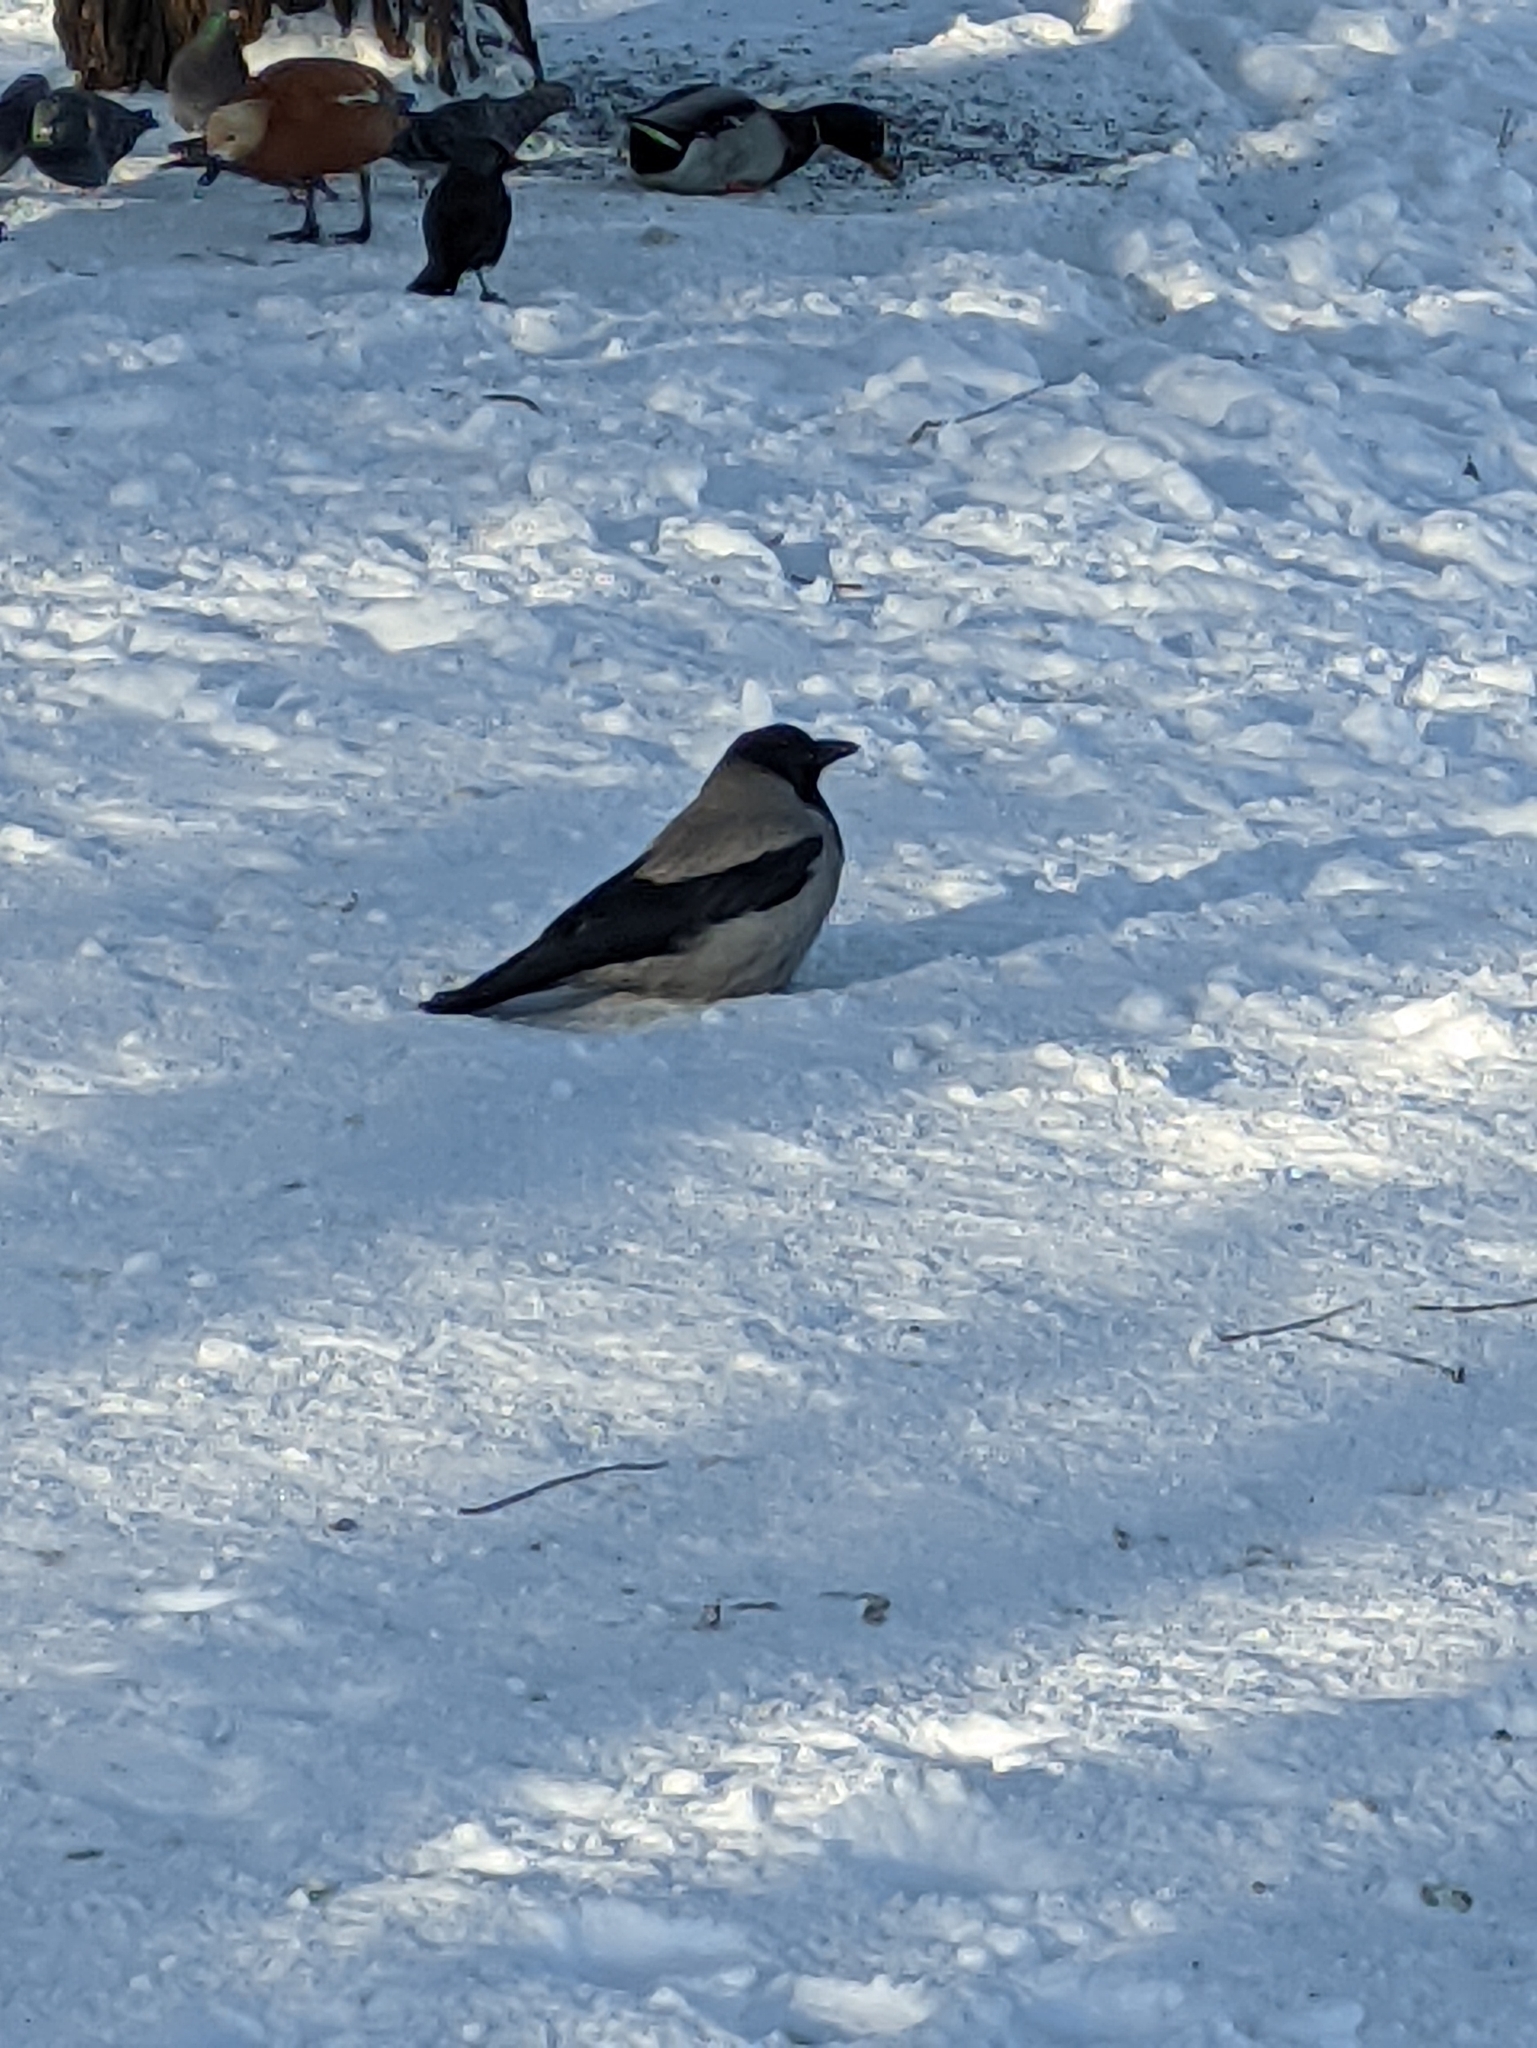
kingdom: Animalia
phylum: Chordata
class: Aves
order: Passeriformes
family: Corvidae
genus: Corvus
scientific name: Corvus cornix
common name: Hooded crow
